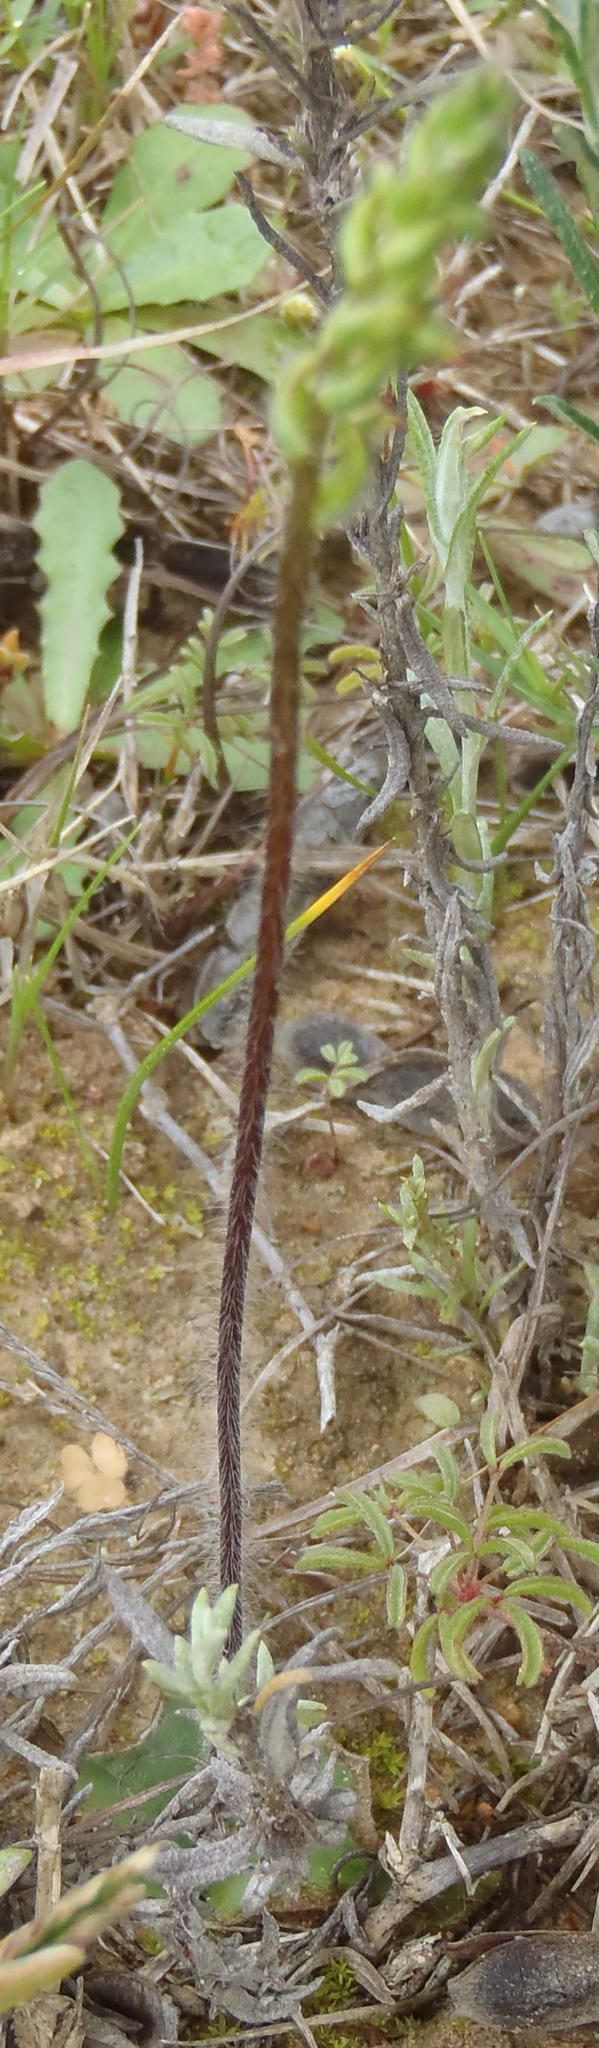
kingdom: Plantae
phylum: Tracheophyta
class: Liliopsida
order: Asparagales
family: Orchidaceae
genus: Holothrix
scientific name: Holothrix villosa
